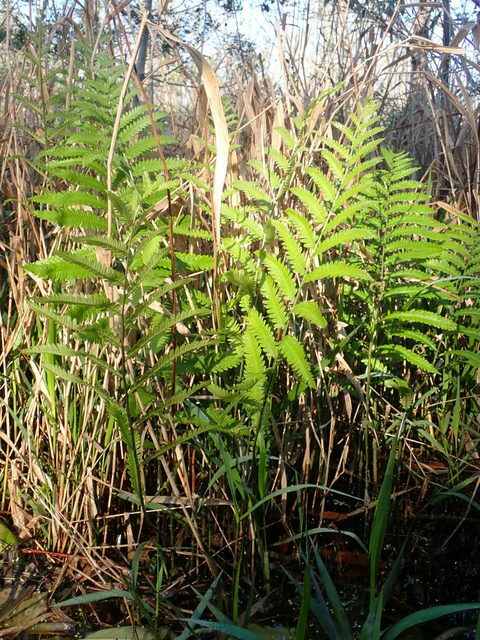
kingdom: Plantae
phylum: Tracheophyta
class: Polypodiopsida
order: Polypodiales
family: Blechnaceae
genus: Anchistea
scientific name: Anchistea virginica
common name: Virginia chain fern
